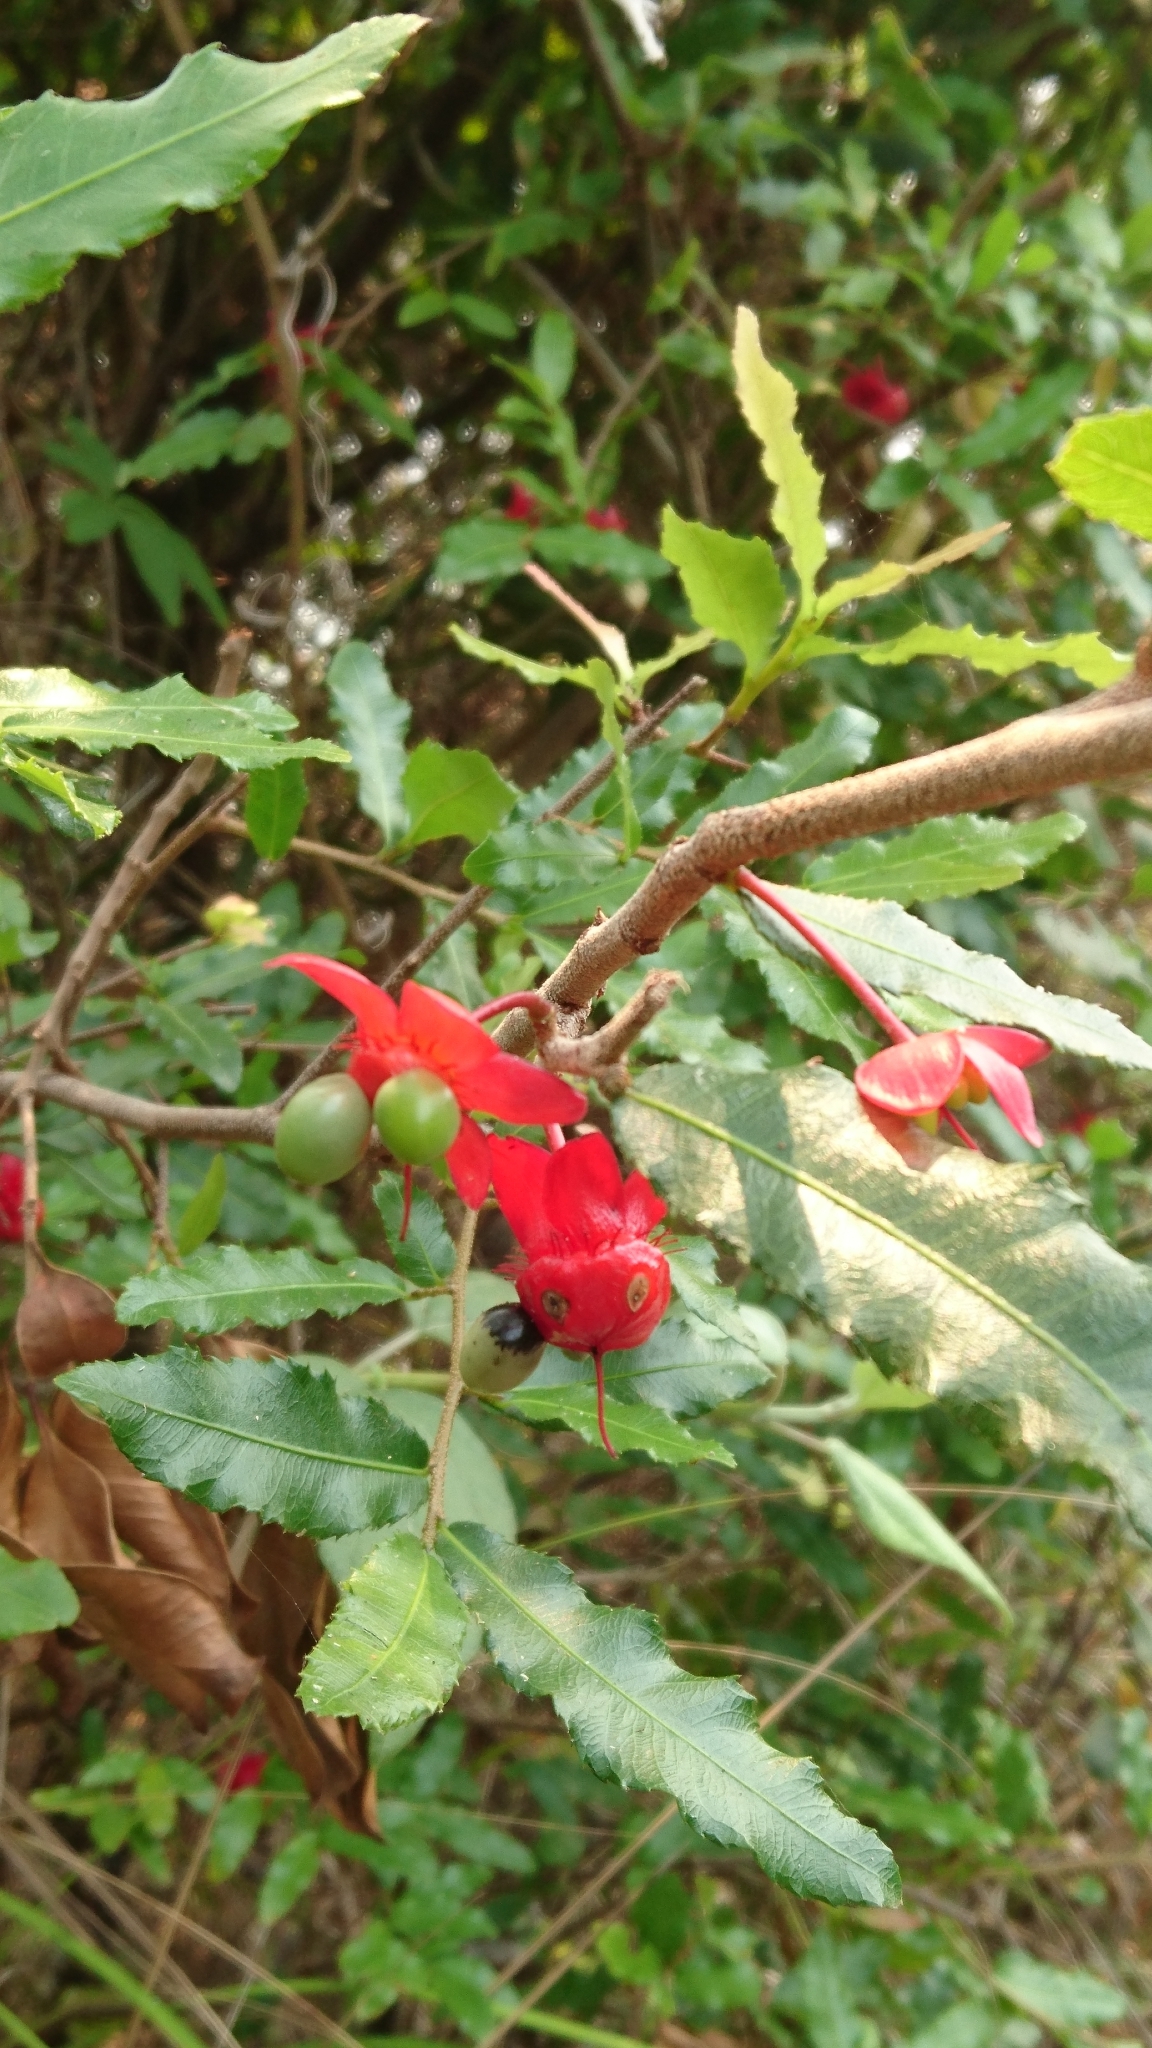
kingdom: Plantae
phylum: Tracheophyta
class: Magnoliopsida
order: Malpighiales
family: Ochnaceae
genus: Ochna
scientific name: Ochna serrulata
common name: Mickey mouse plant
